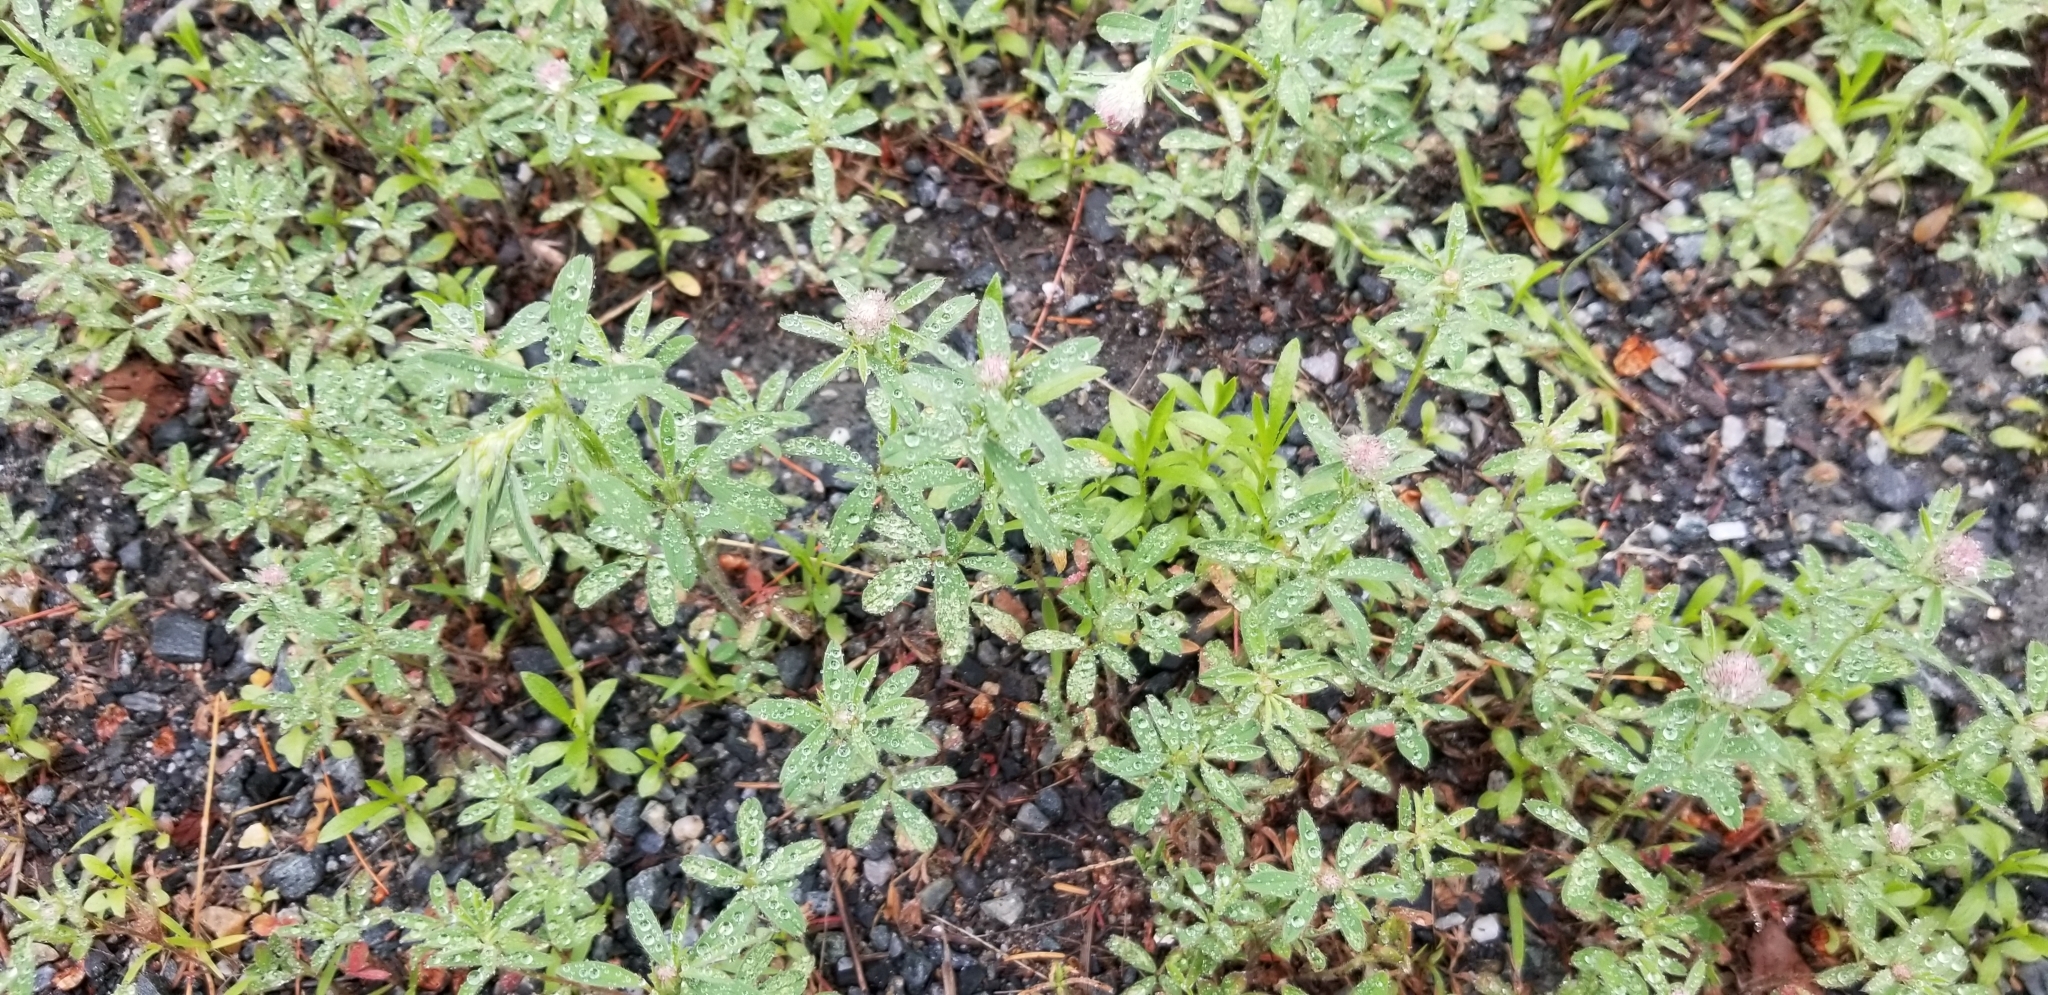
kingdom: Plantae
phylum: Tracheophyta
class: Magnoliopsida
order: Fabales
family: Fabaceae
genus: Trifolium
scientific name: Trifolium arvense
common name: Hare's-foot clover
